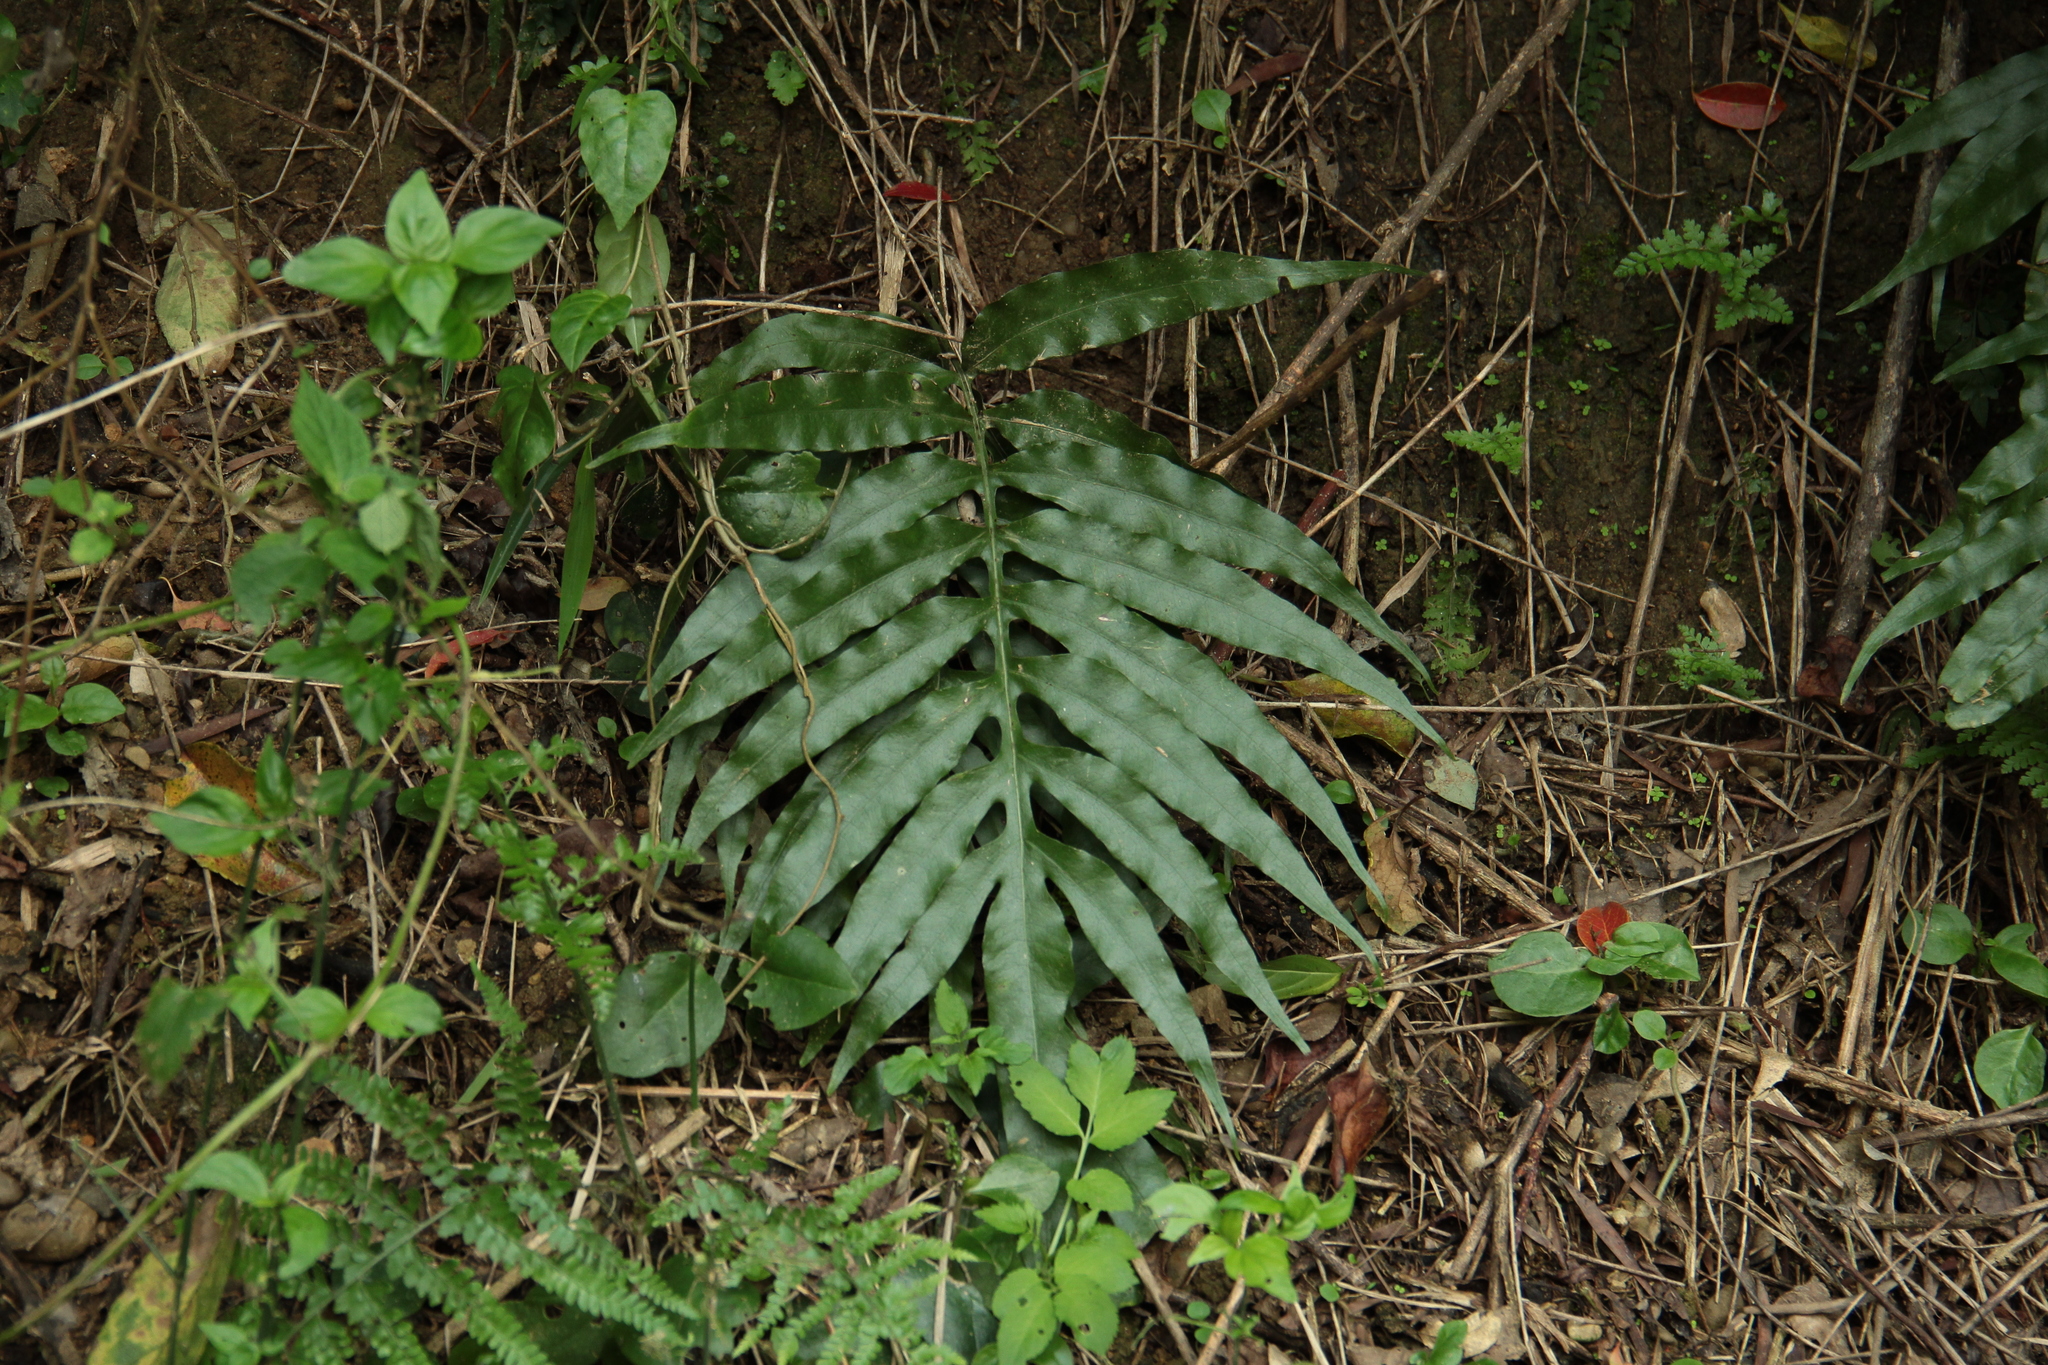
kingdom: Plantae
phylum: Tracheophyta
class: Polypodiopsida
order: Polypodiales
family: Polypodiaceae
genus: Leptochilus
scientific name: Leptochilus ellipticus
